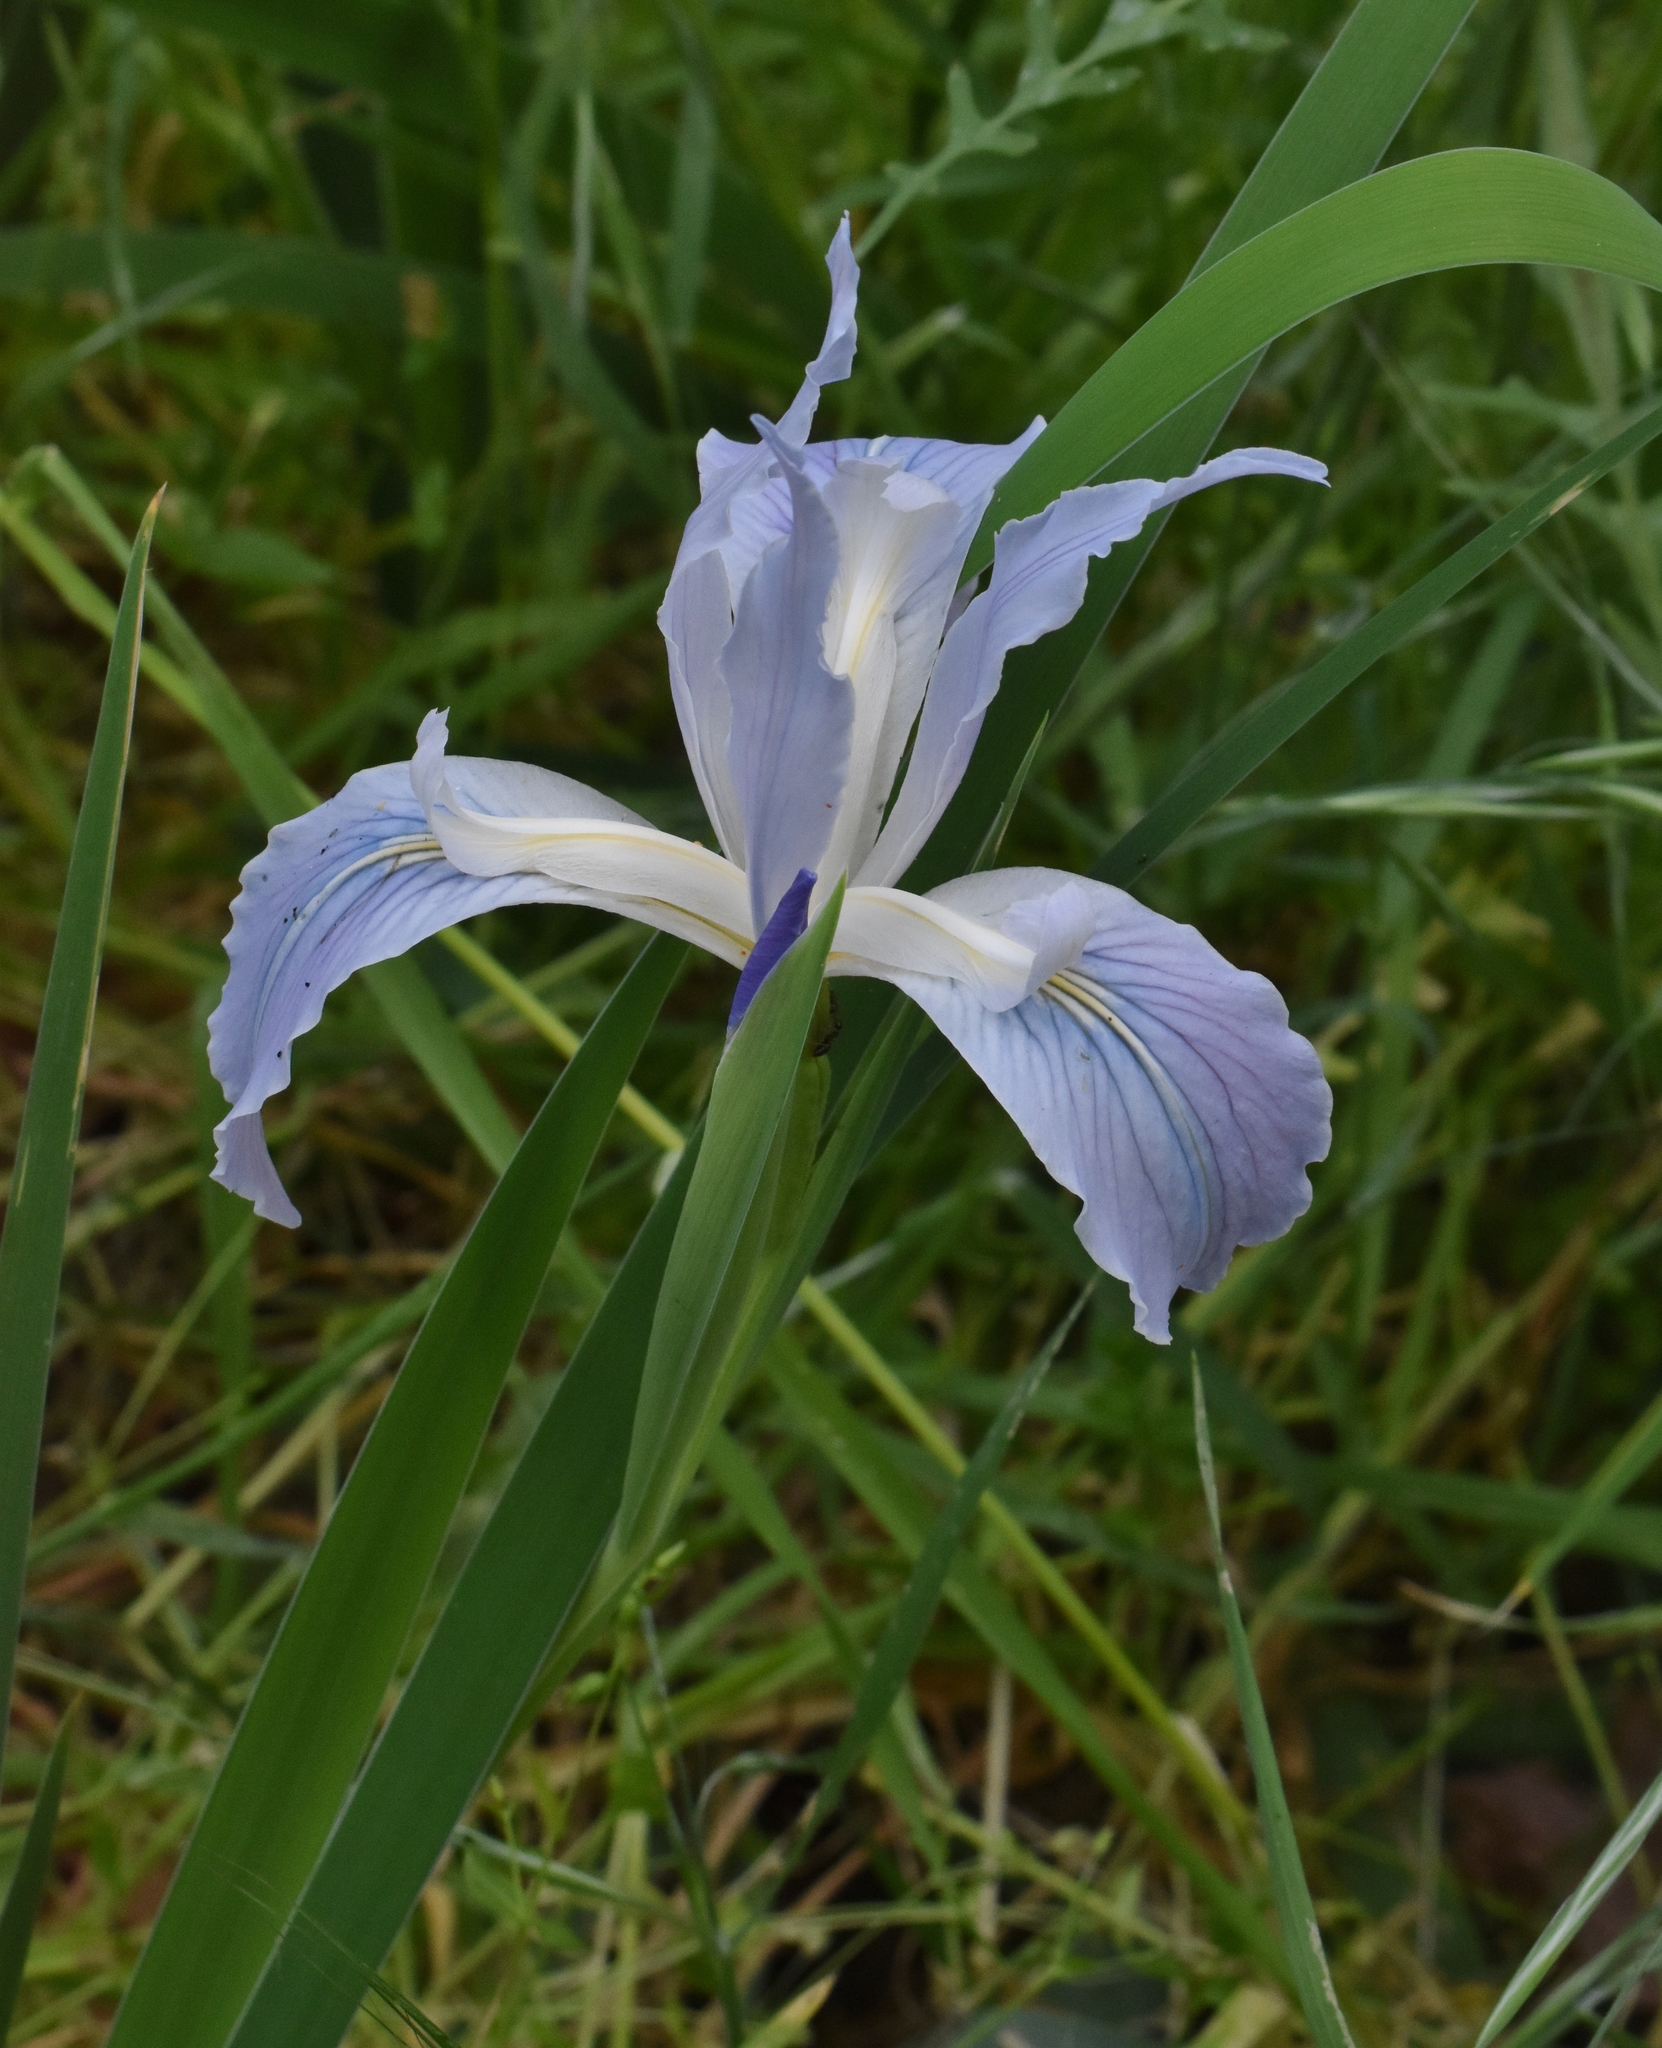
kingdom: Plantae
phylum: Tracheophyta
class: Liliopsida
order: Asparagales
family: Iridaceae
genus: Iris
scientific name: Iris munzii
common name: Munz's iris
